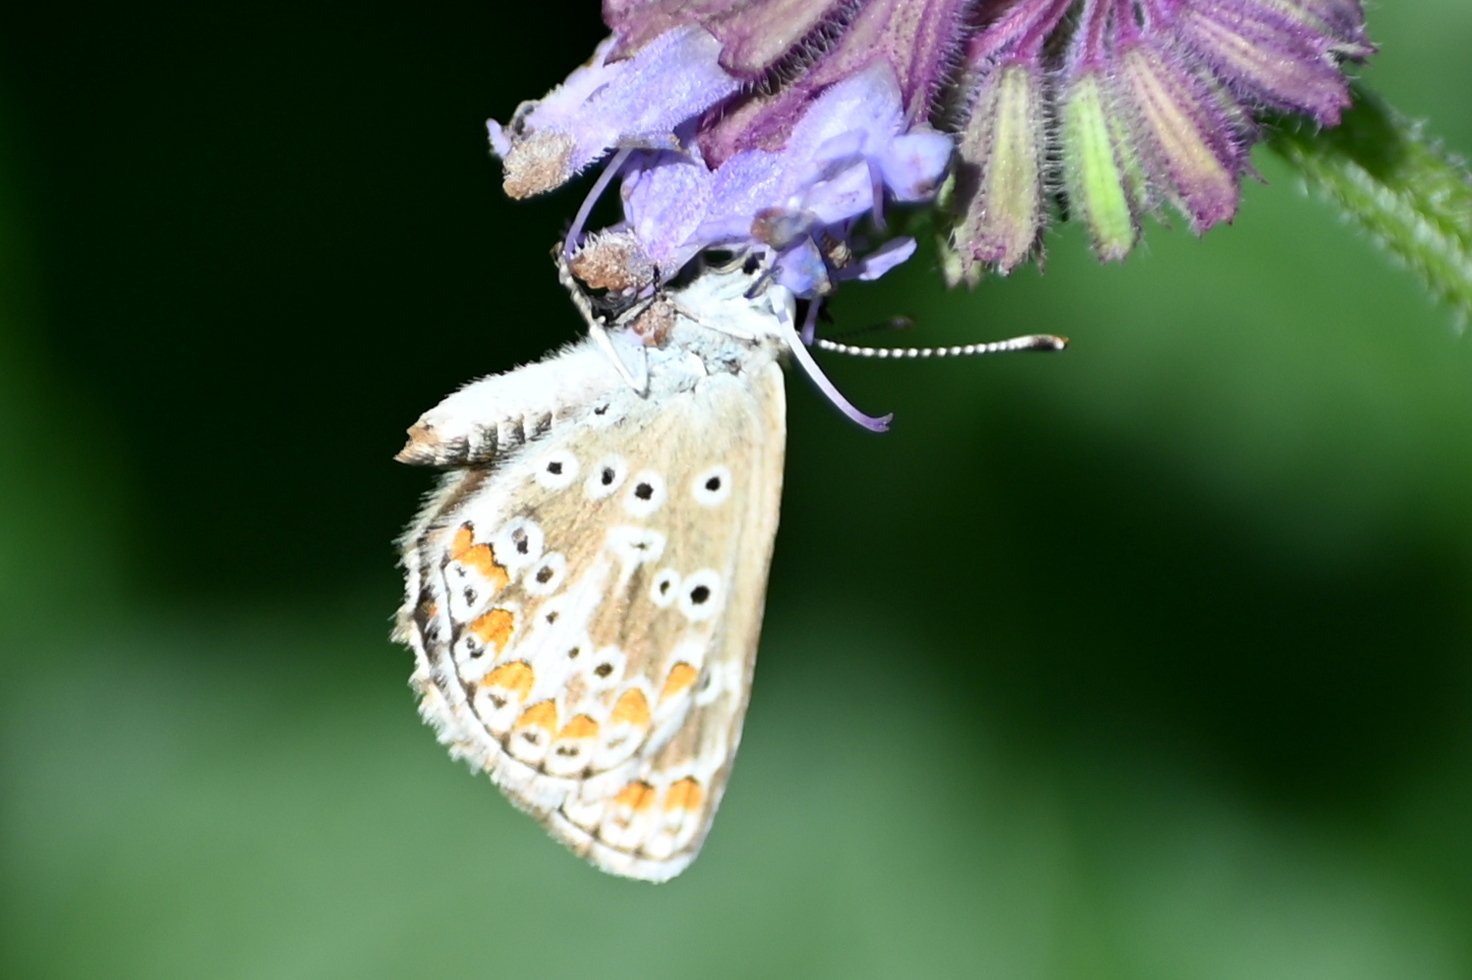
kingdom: Animalia
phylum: Arthropoda
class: Insecta
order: Lepidoptera
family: Lycaenidae
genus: Aricia
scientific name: Aricia agestis
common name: Brown argus
